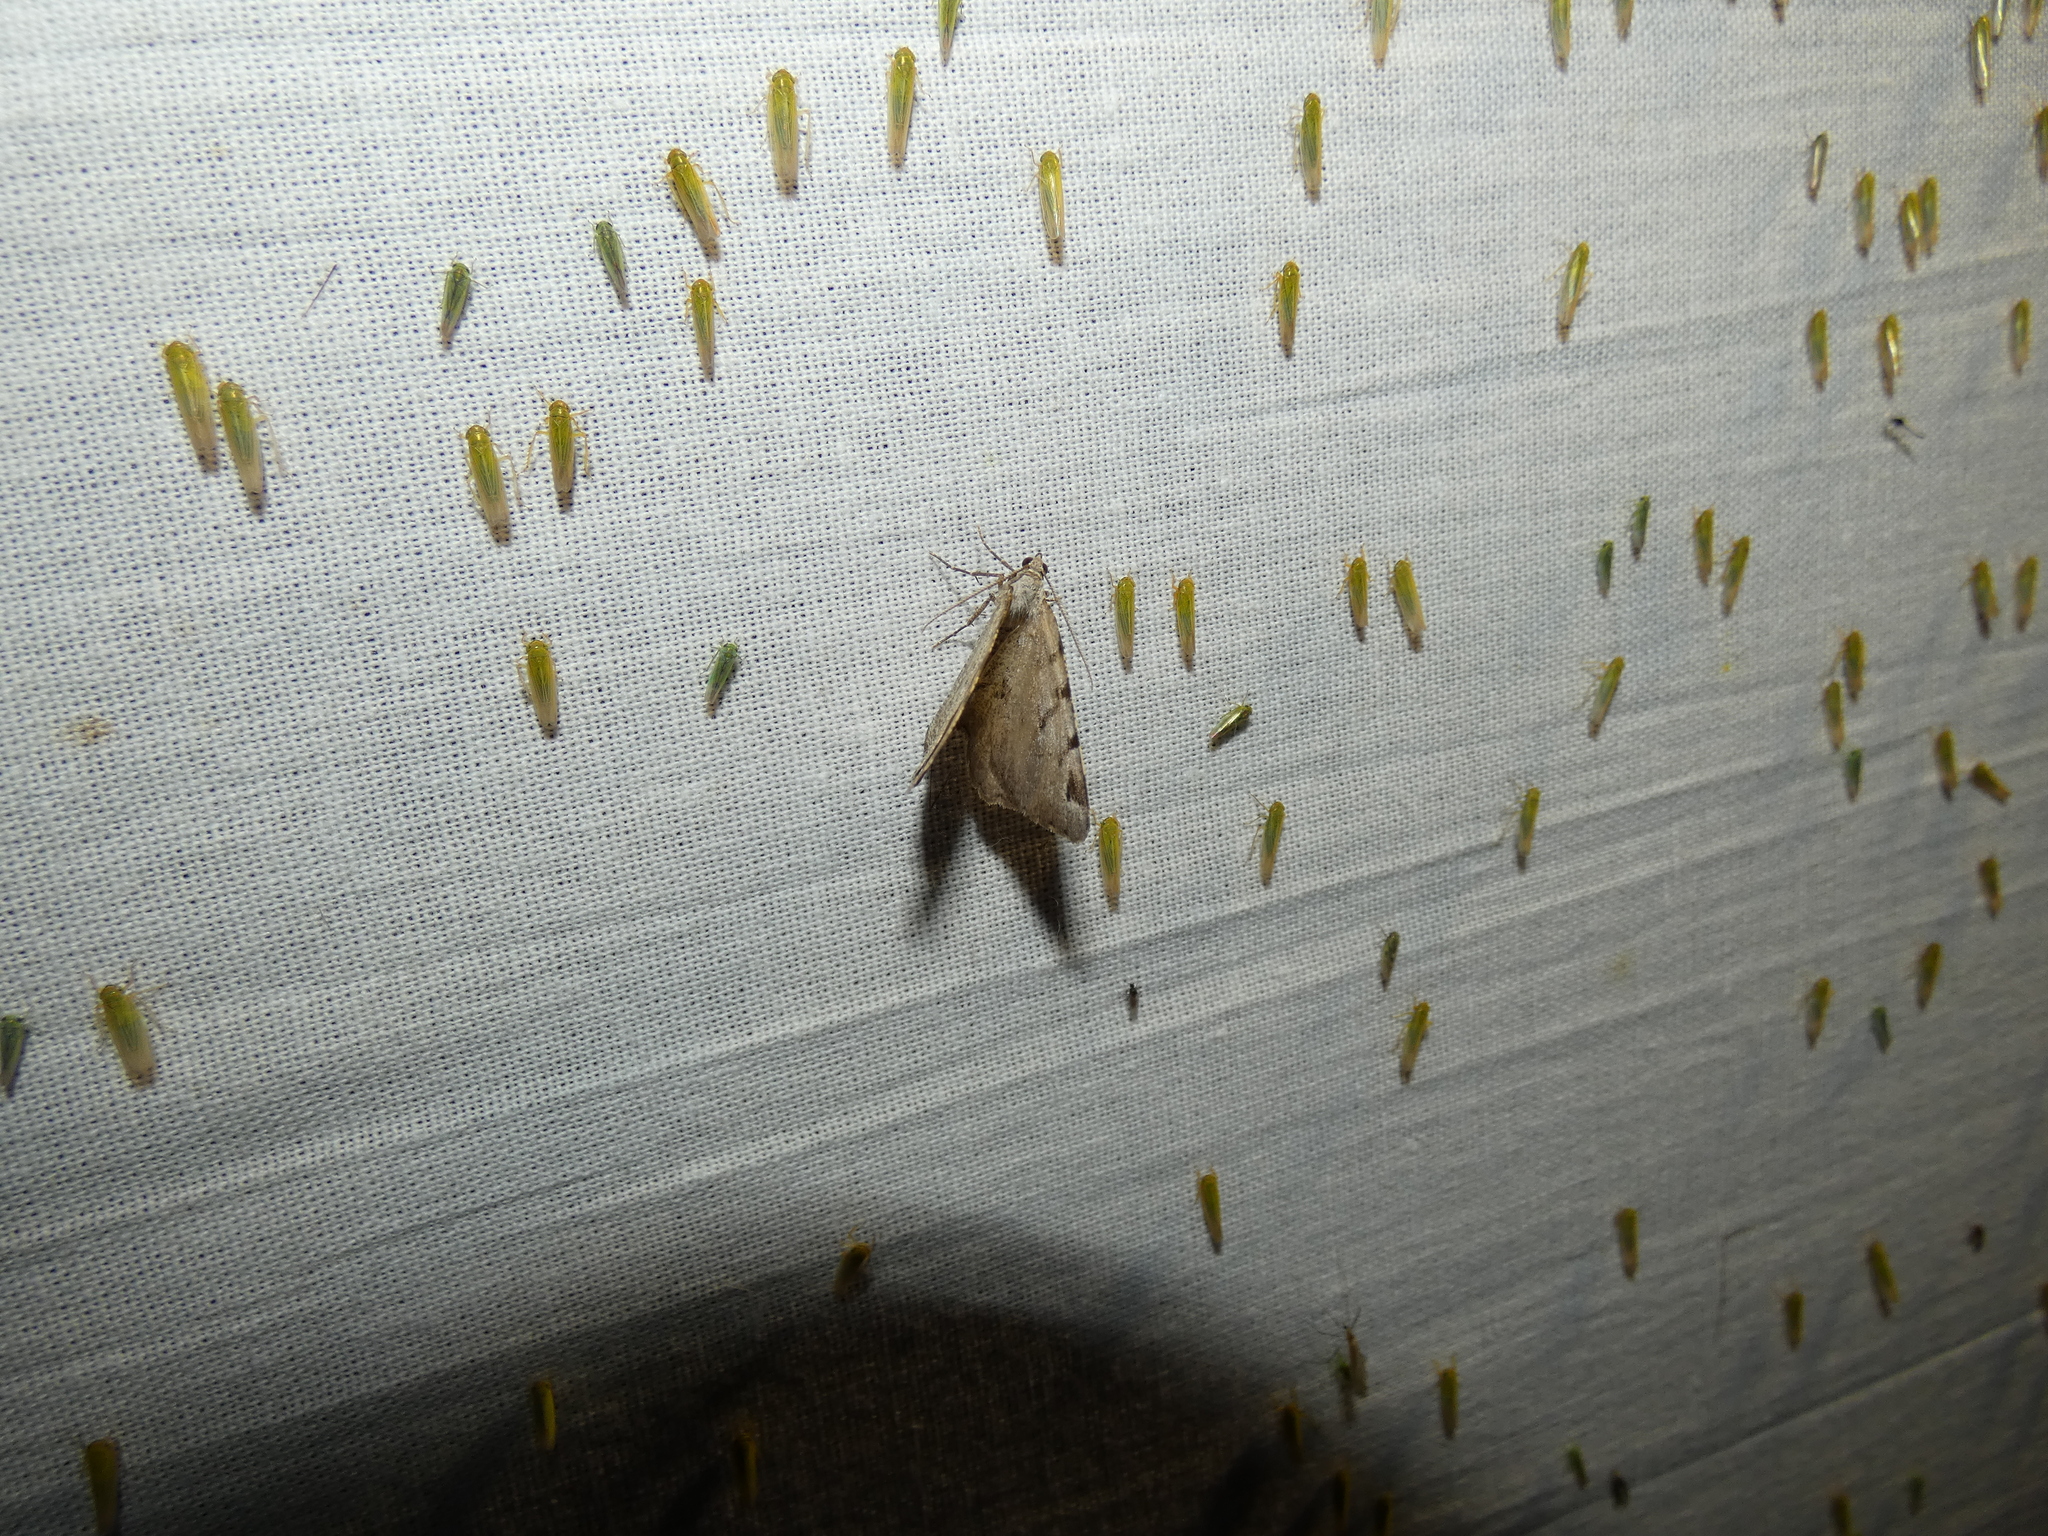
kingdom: Animalia
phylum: Arthropoda
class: Insecta
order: Lepidoptera
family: Geometridae
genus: Macaria
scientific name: Macaria wauaria
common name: V-moth
